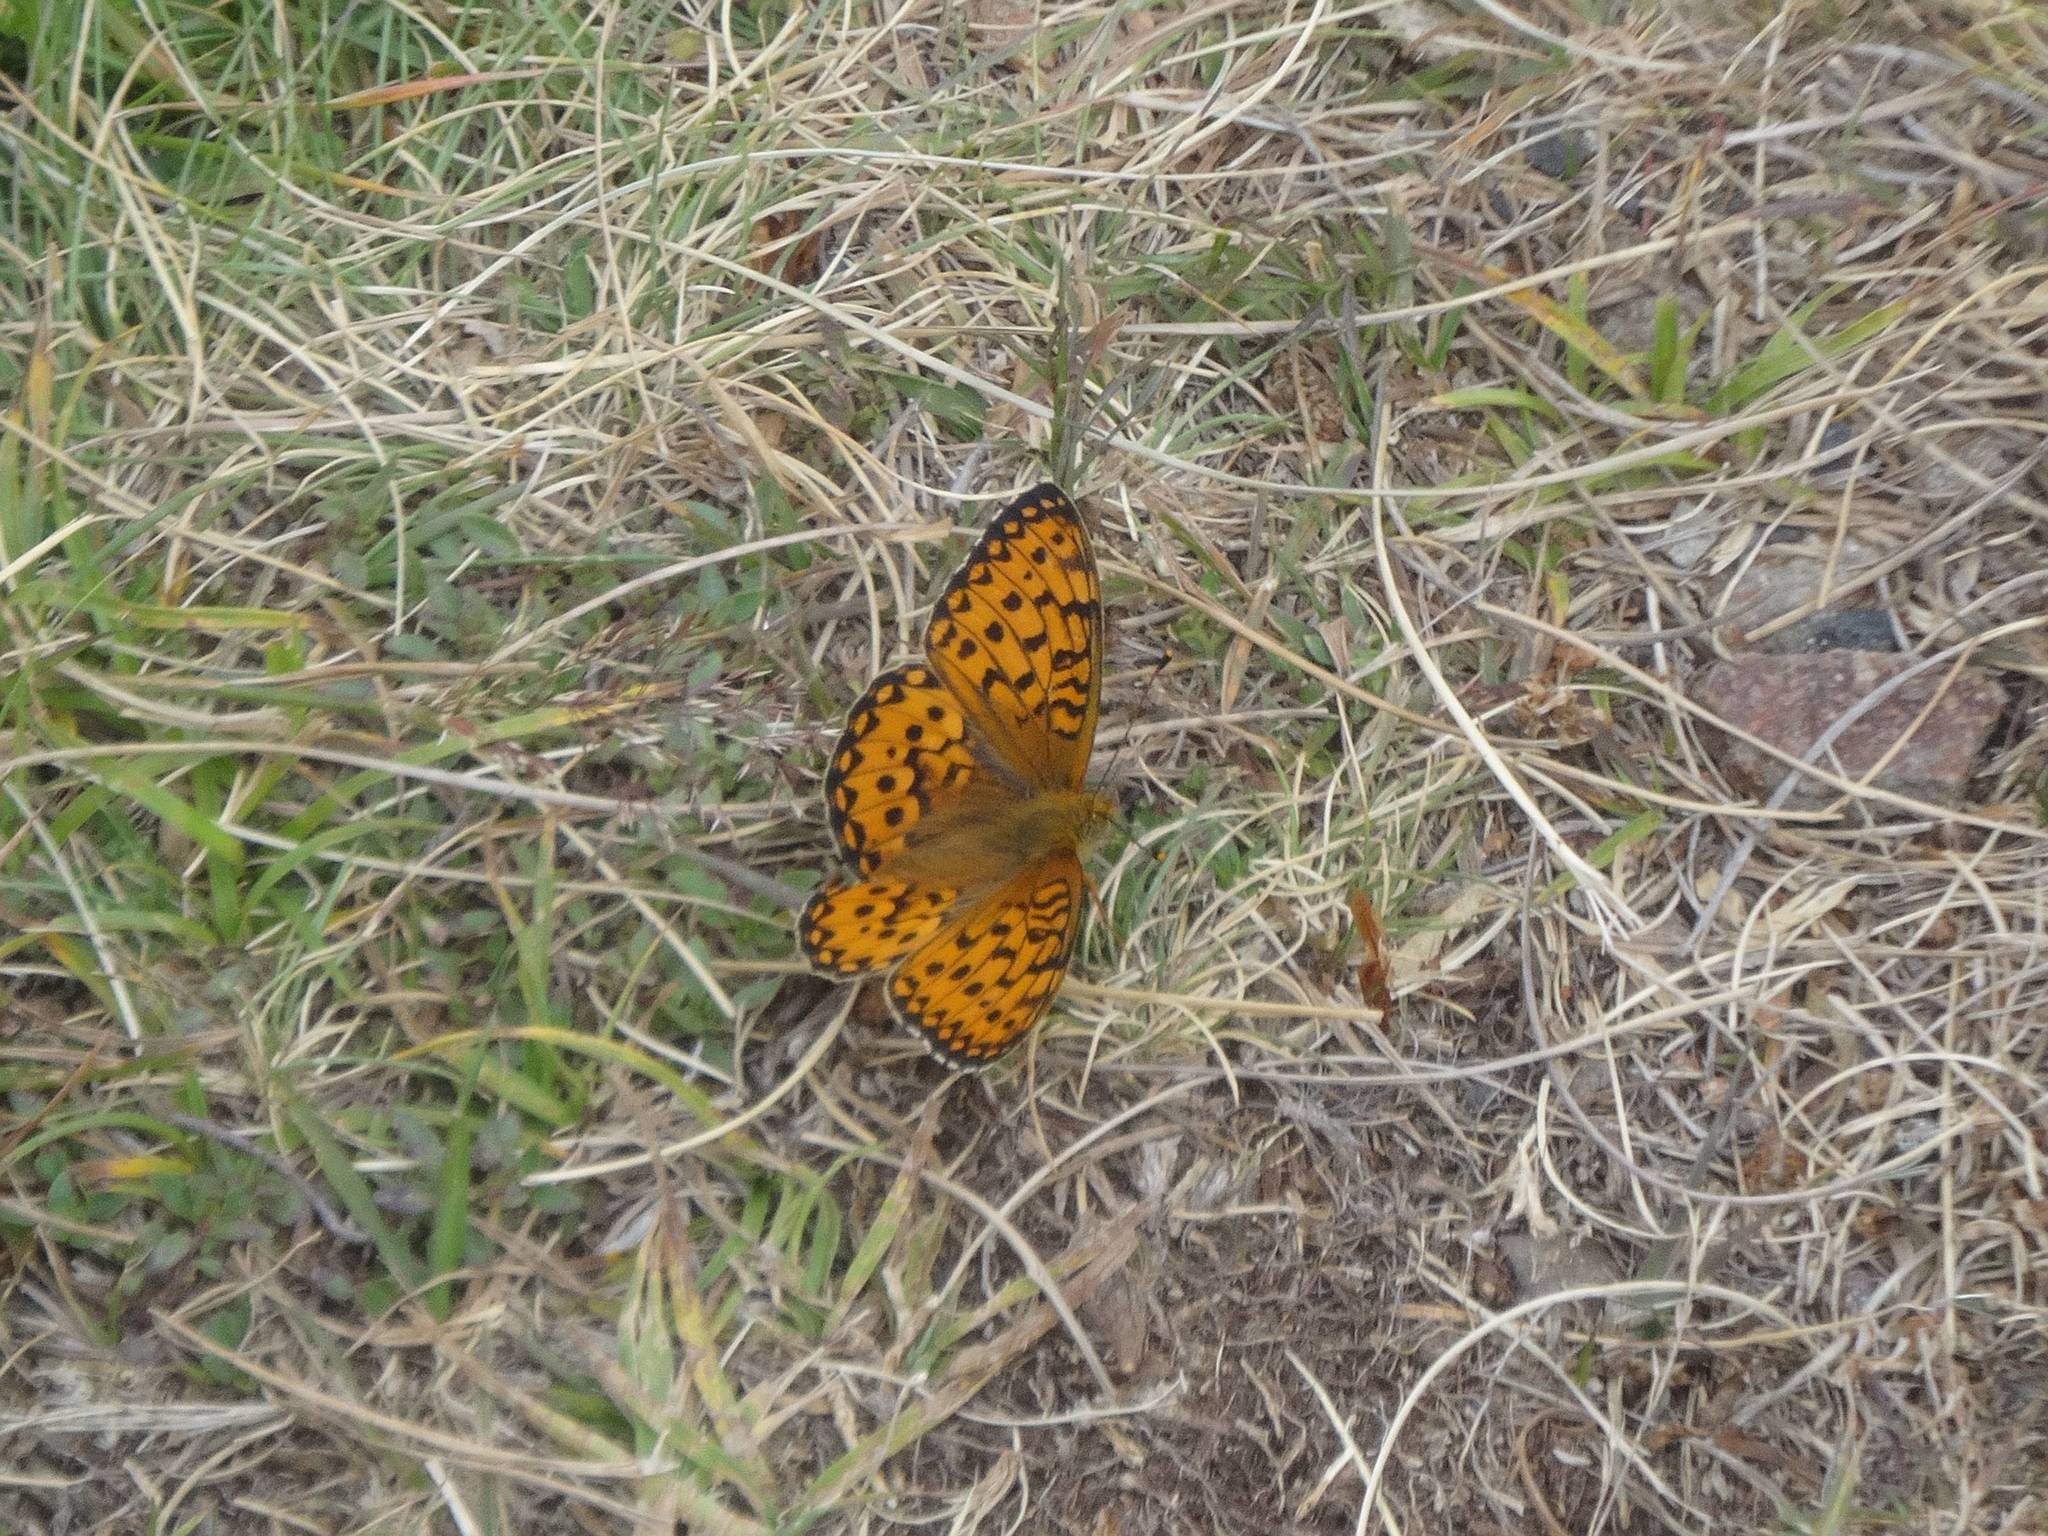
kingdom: Animalia
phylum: Arthropoda
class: Insecta
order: Lepidoptera
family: Nymphalidae
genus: Speyeria
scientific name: Speyeria aglaja
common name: Dark green fritillary
